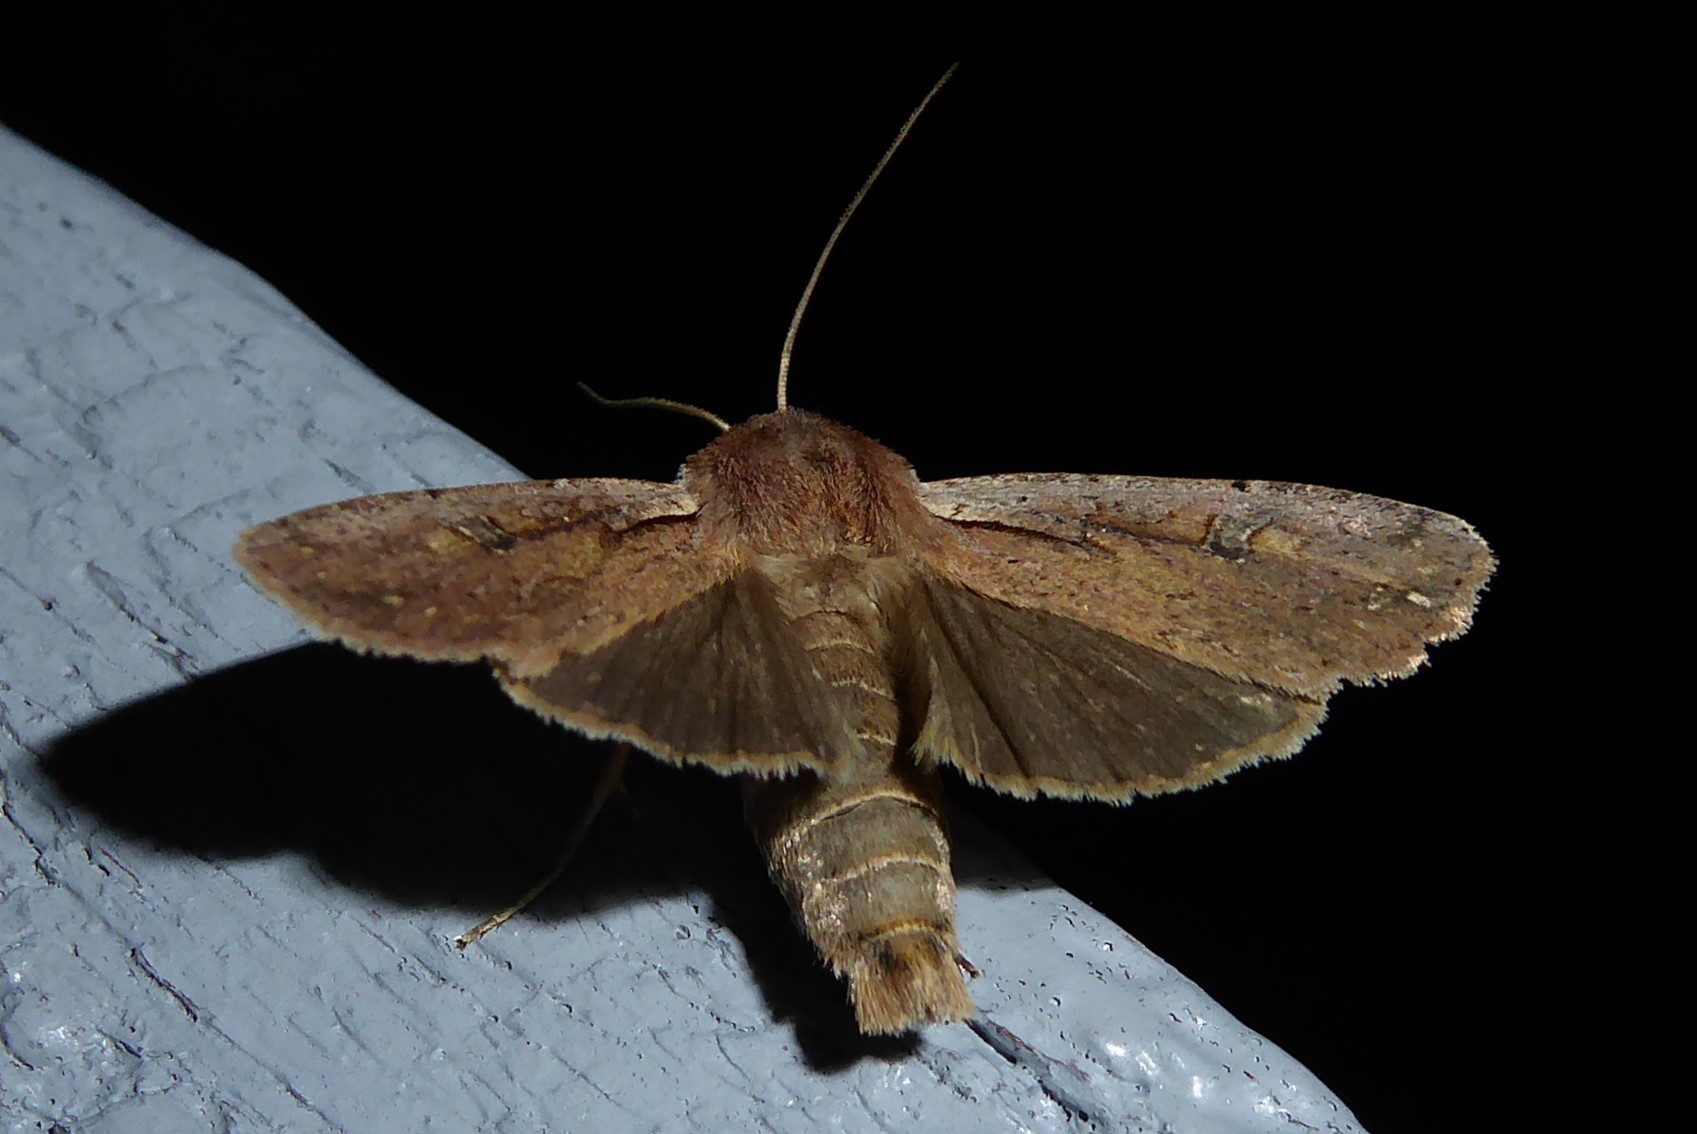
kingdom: Animalia
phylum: Arthropoda
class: Insecta
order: Lepidoptera
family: Noctuidae
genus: Ichneutica
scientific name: Ichneutica atristriga
